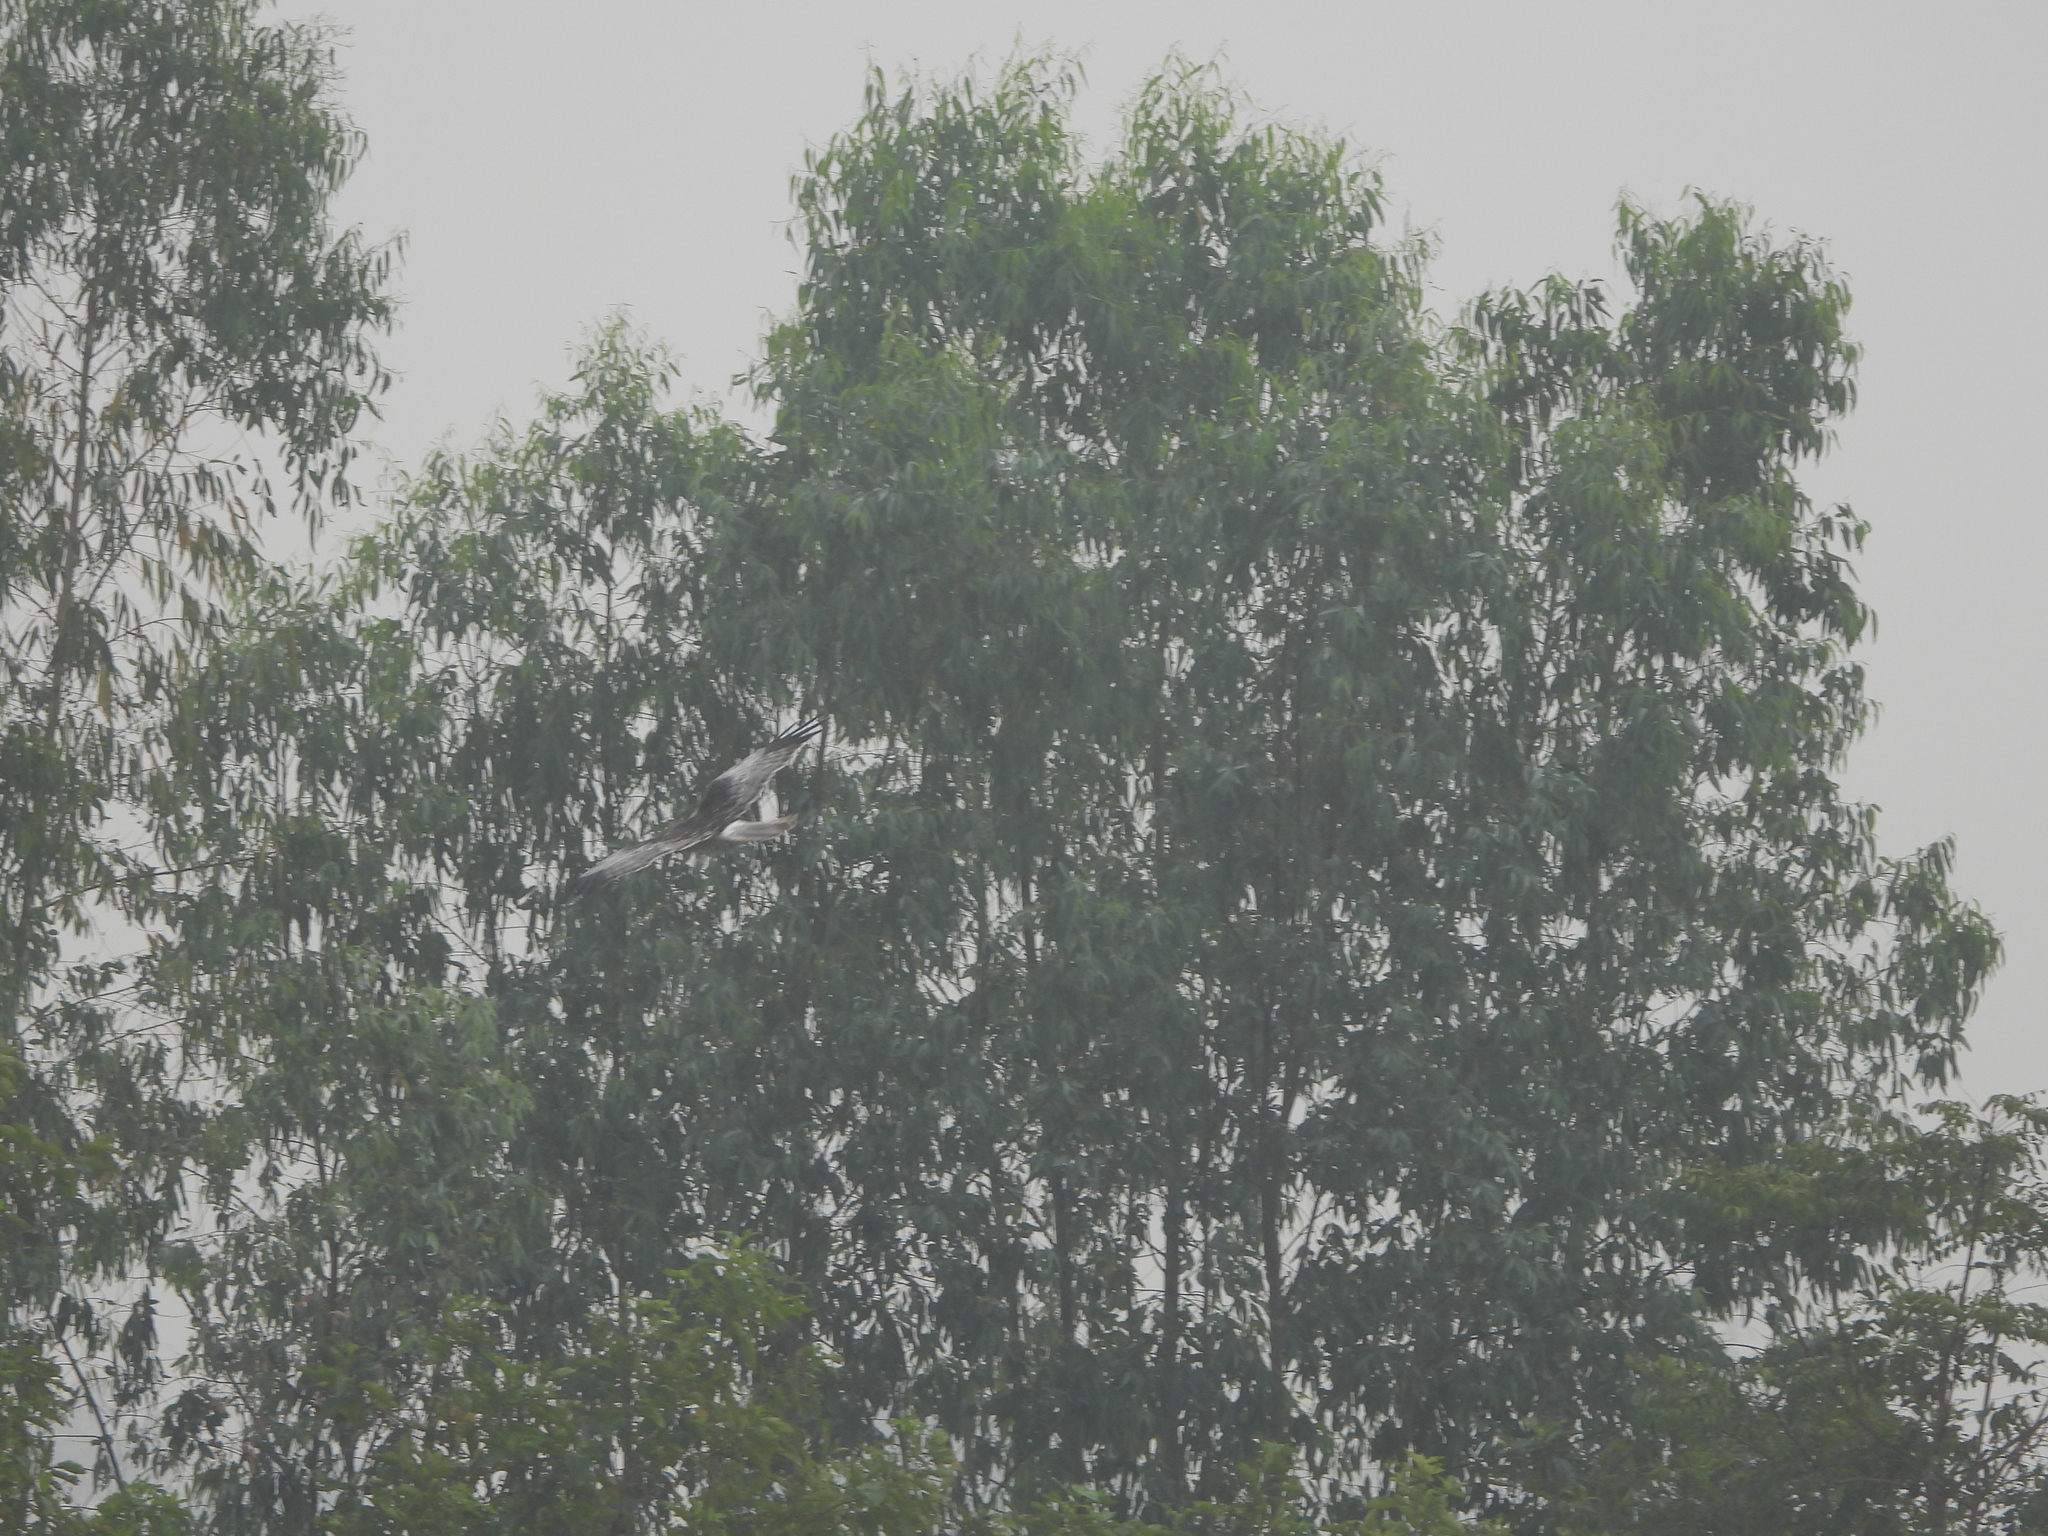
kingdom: Animalia
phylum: Chordata
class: Aves
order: Accipitriformes
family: Accipitridae
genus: Circus
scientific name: Circus spilonotus
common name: Eastern marsh-harrier
